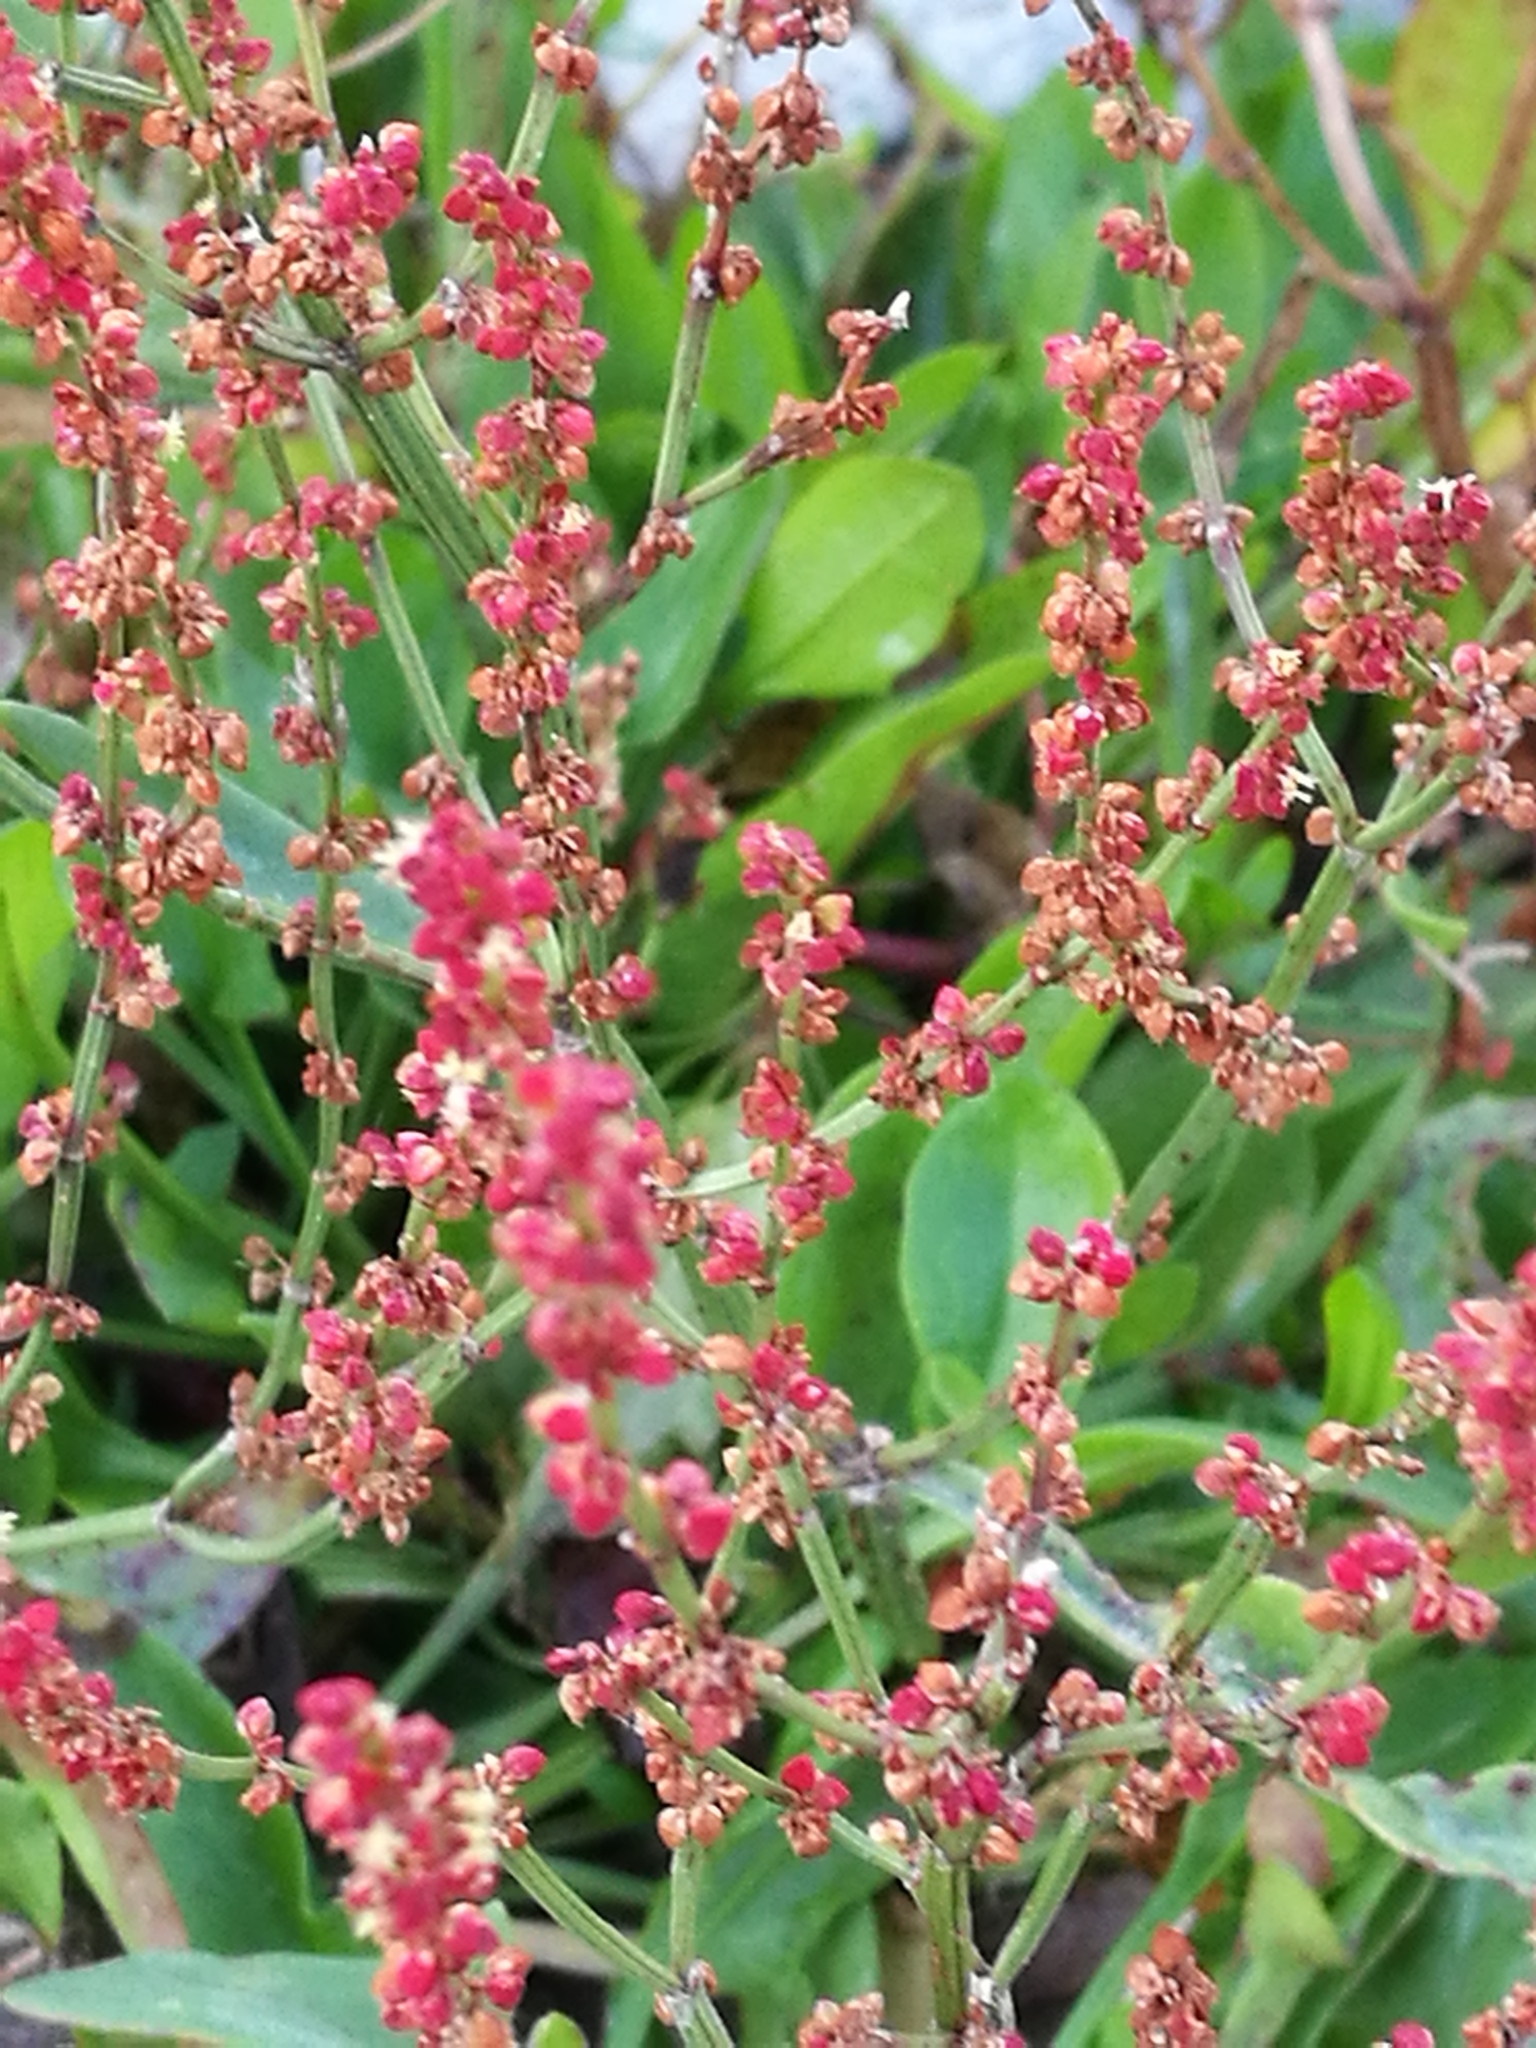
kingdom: Plantae
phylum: Tracheophyta
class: Magnoliopsida
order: Caryophyllales
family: Polygonaceae
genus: Rumex
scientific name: Rumex acetosella
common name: Common sheep sorrel
